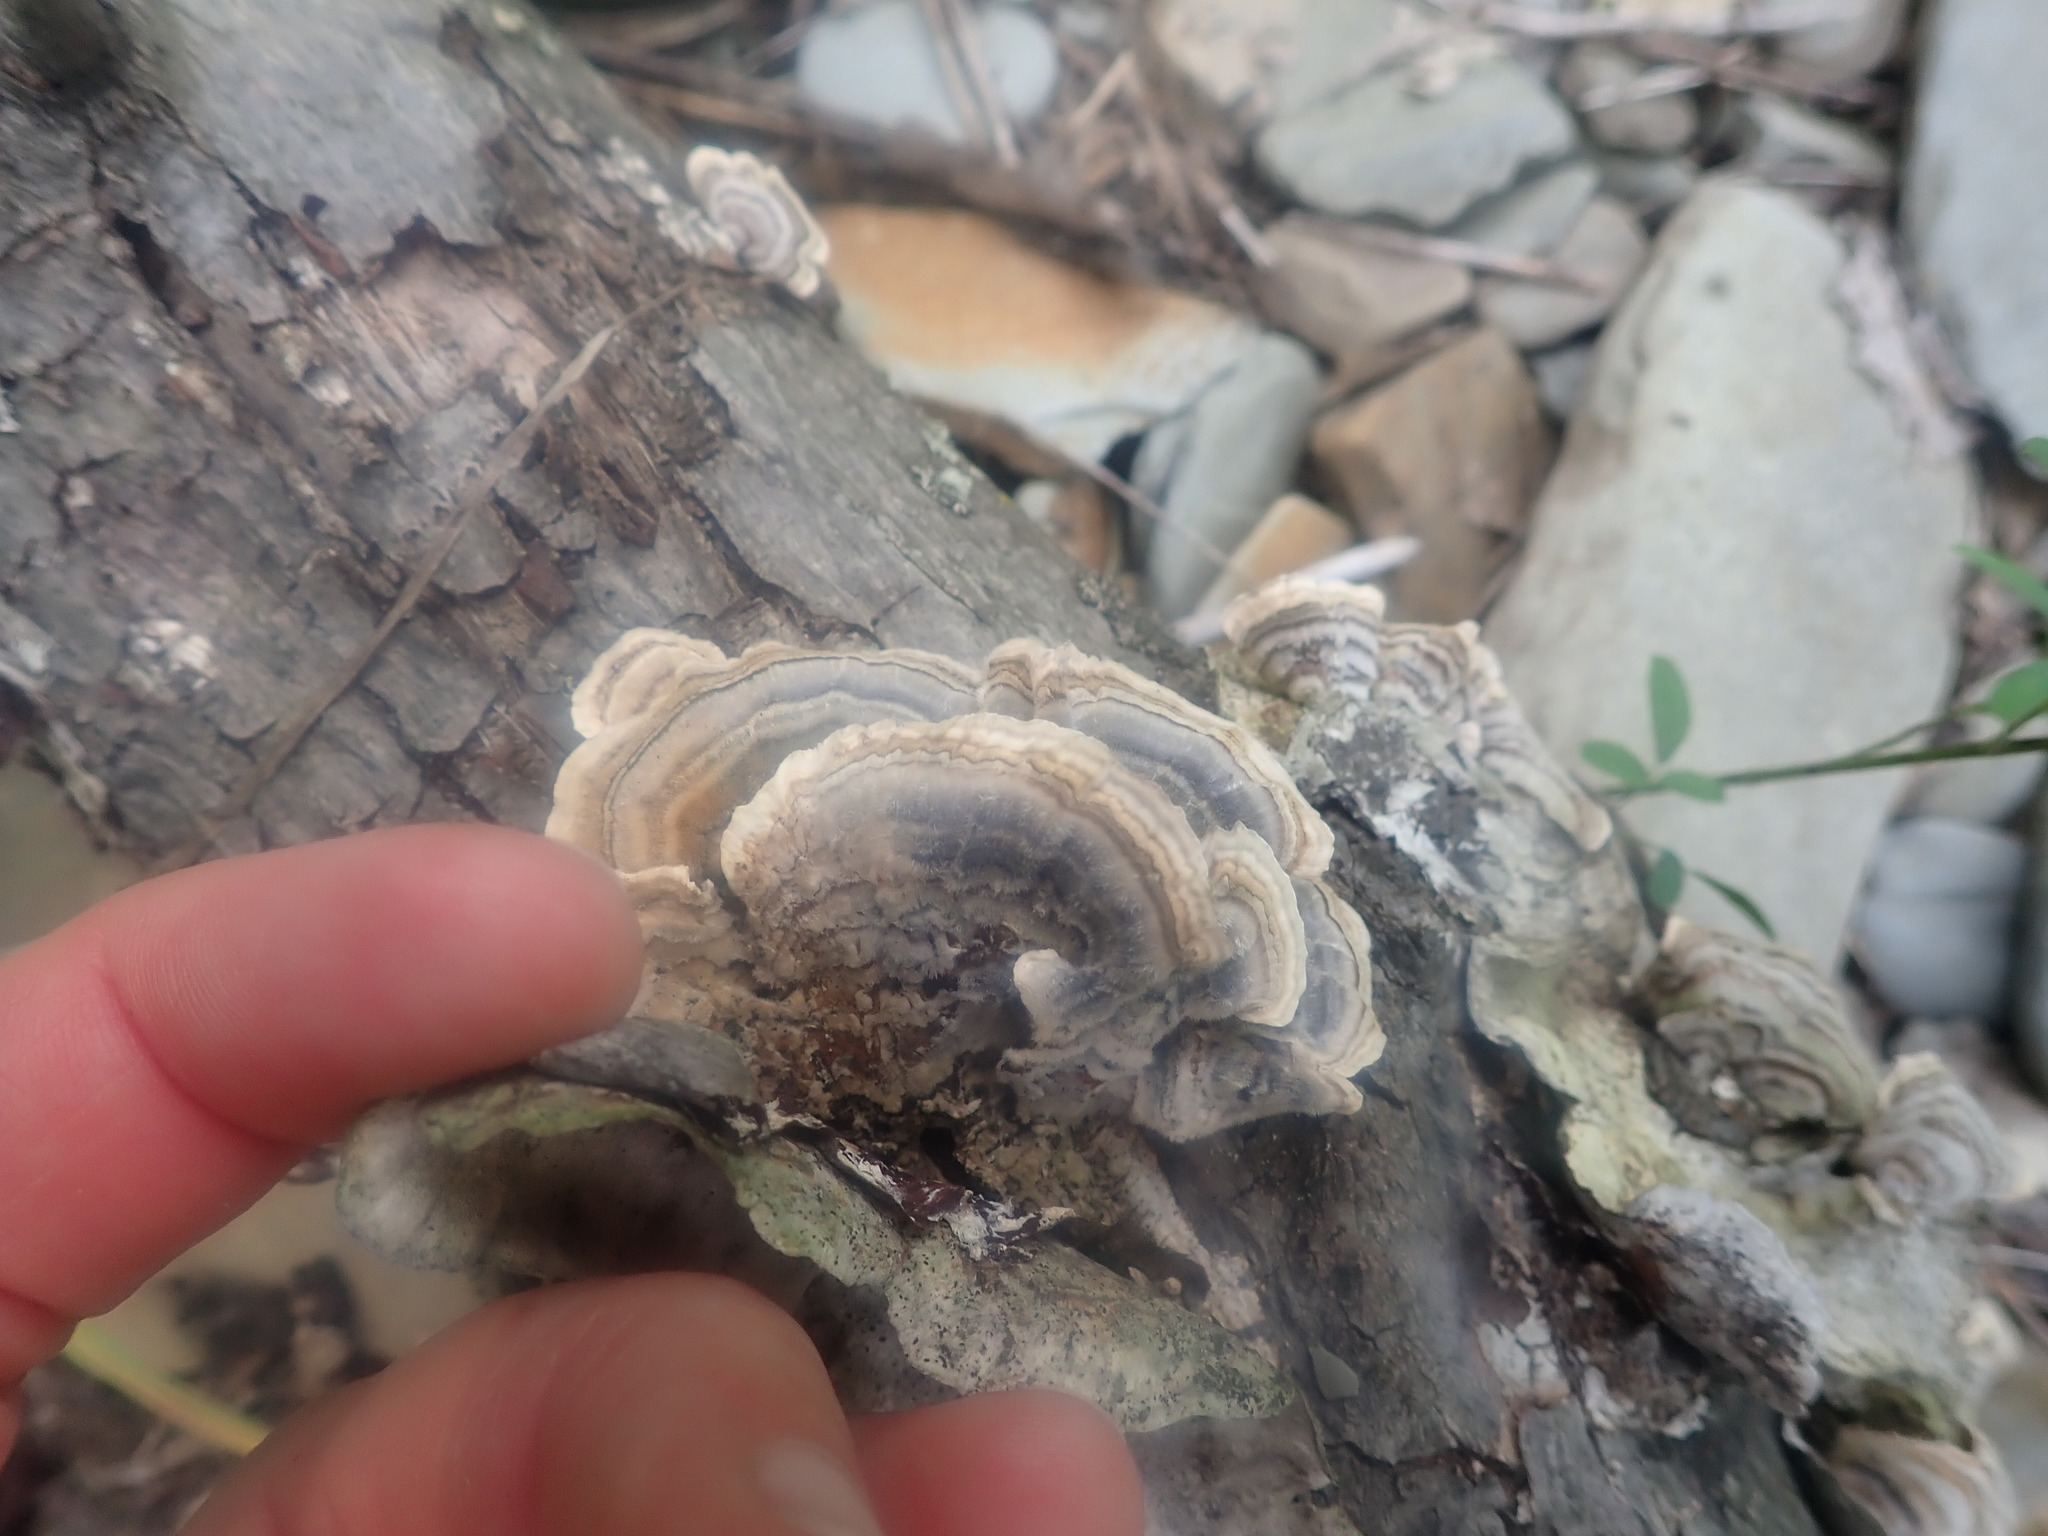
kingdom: Fungi
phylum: Basidiomycota
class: Agaricomycetes
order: Polyporales
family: Polyporaceae
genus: Trametes
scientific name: Trametes versicolor
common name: Turkeytail
